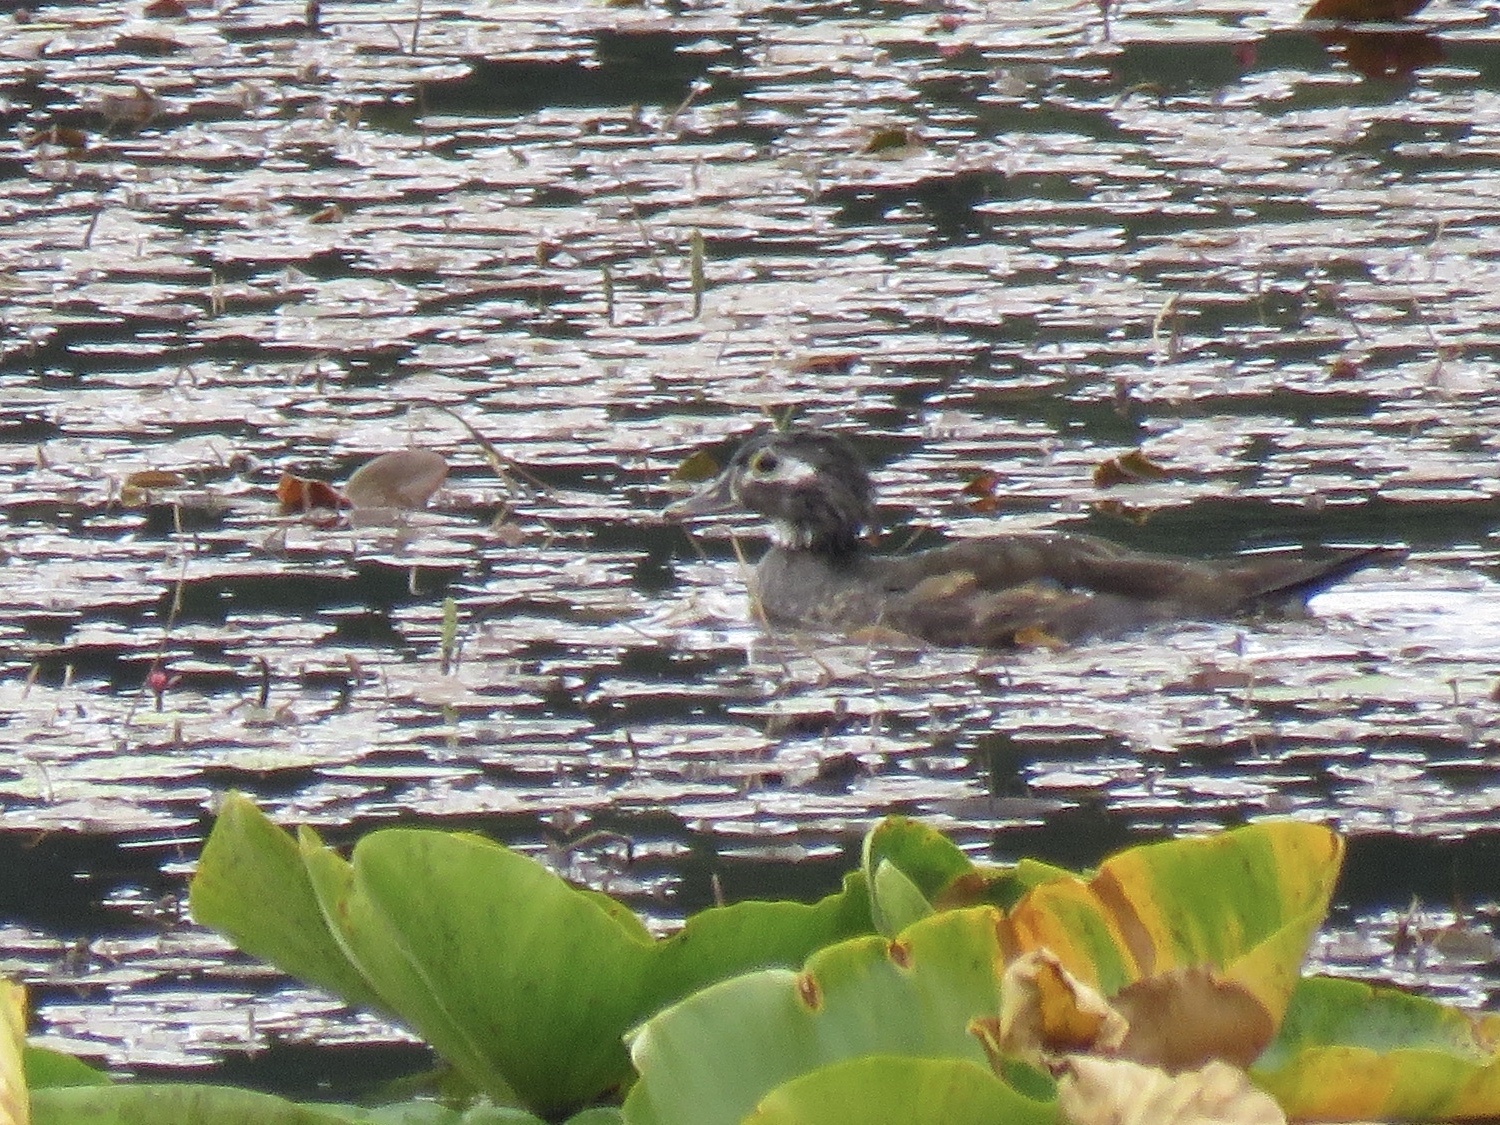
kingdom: Animalia
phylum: Chordata
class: Aves
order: Anseriformes
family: Anatidae
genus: Aix
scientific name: Aix sponsa
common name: Wood duck
